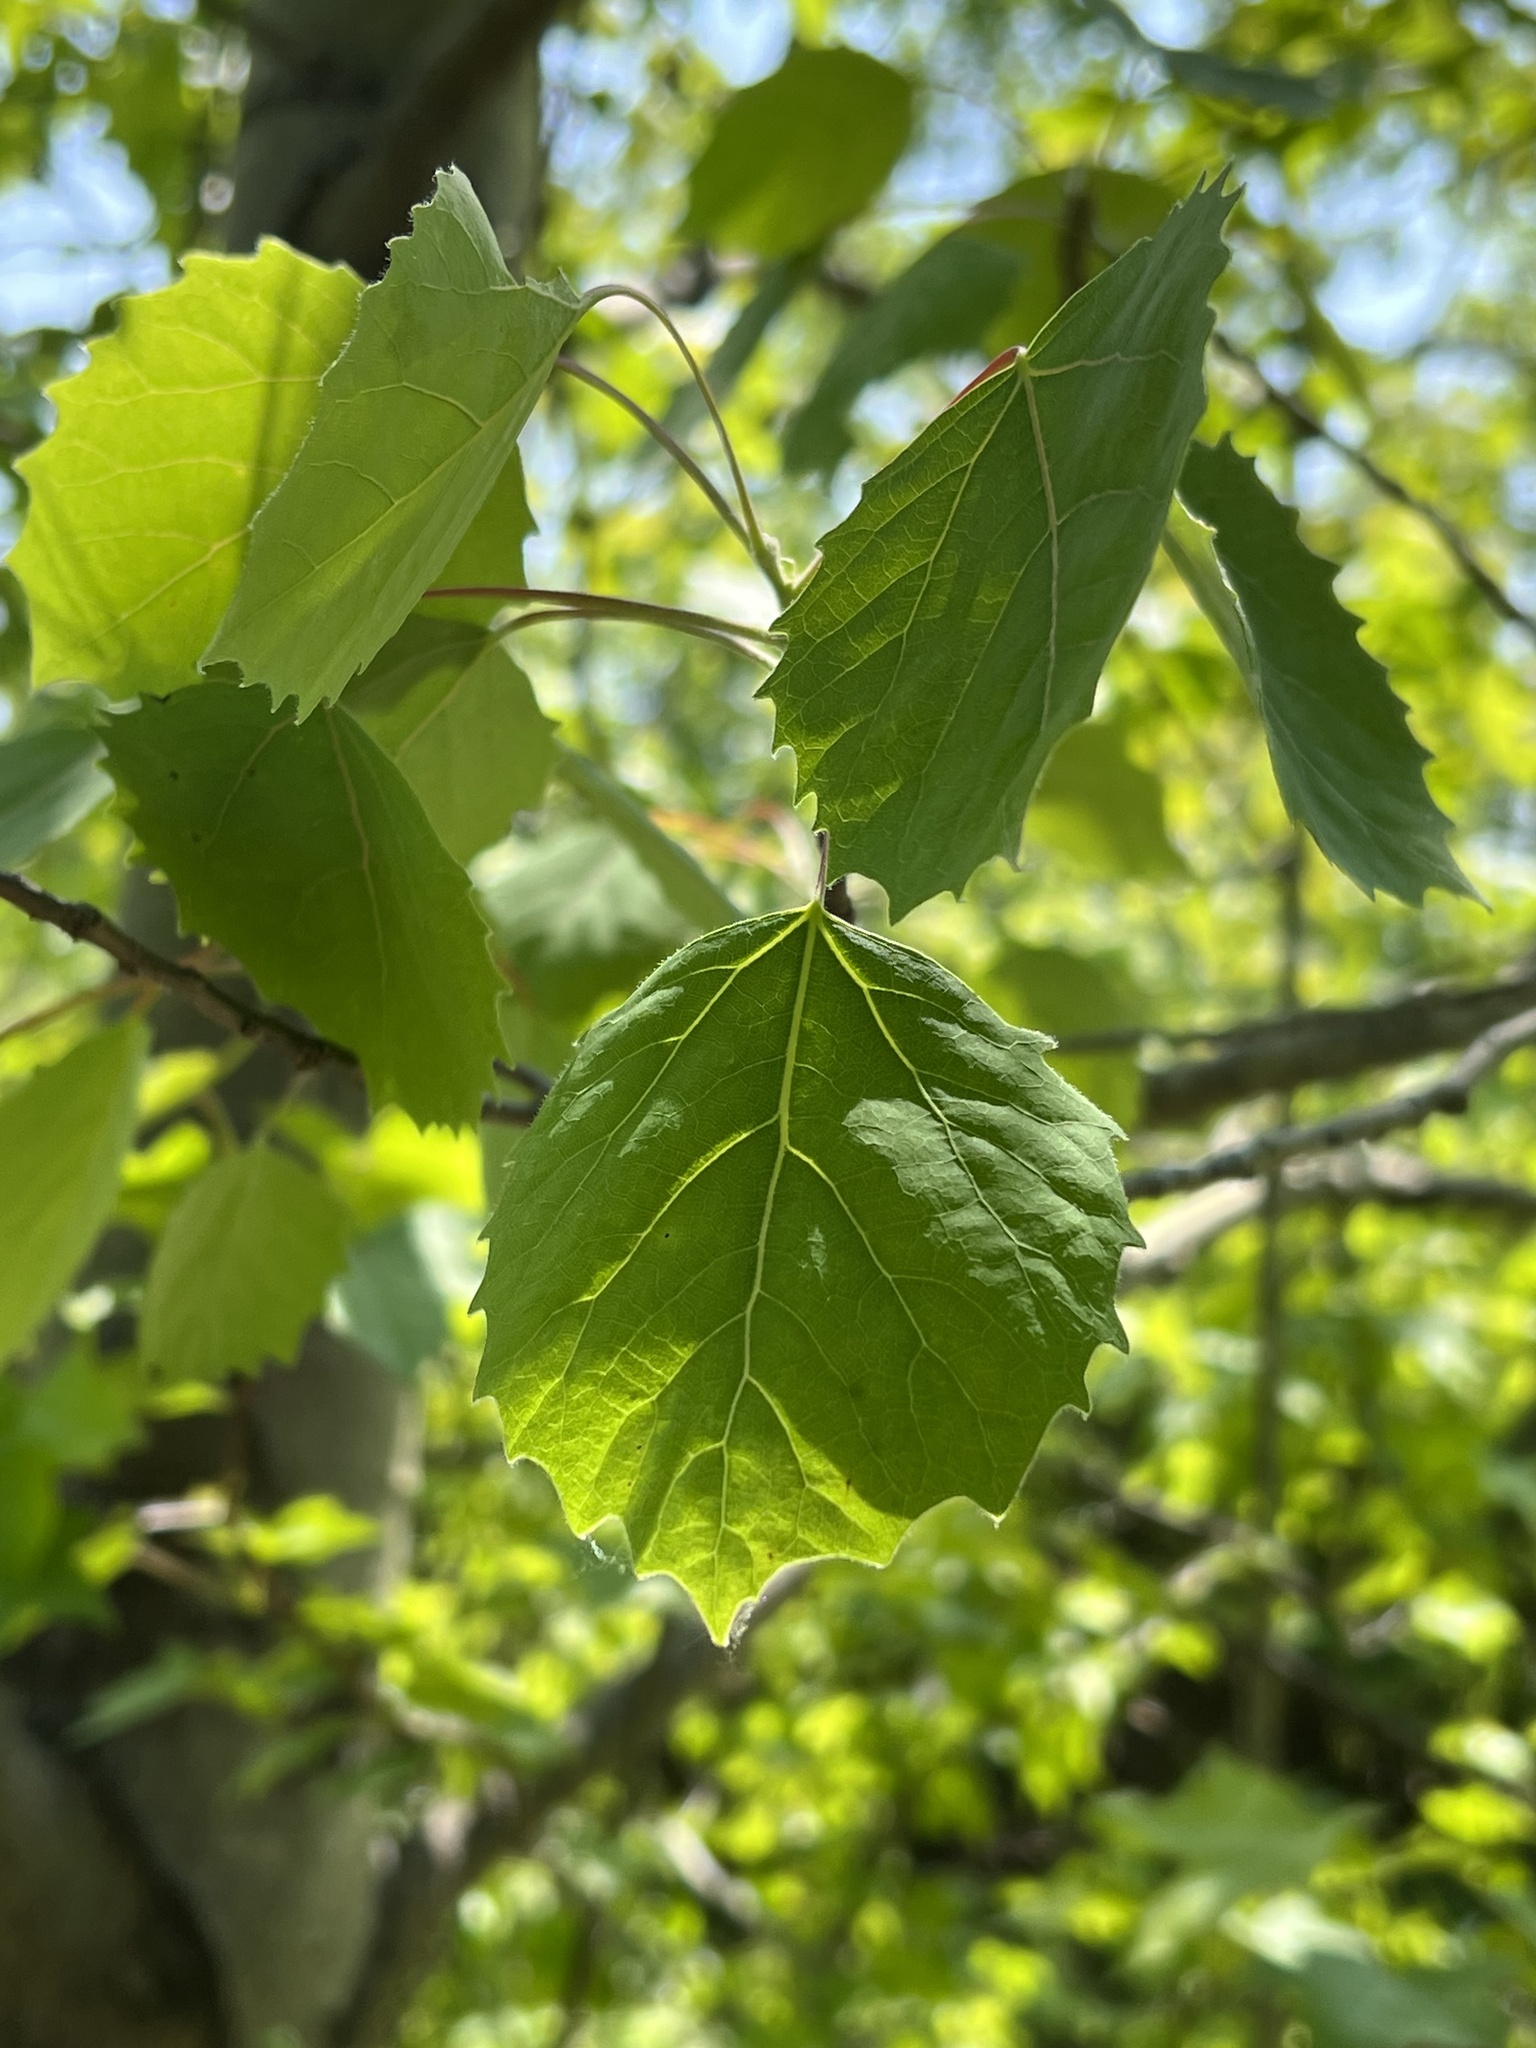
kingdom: Plantae
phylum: Tracheophyta
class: Magnoliopsida
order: Malpighiales
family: Salicaceae
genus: Populus
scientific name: Populus grandidentata
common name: Bigtooth aspen
